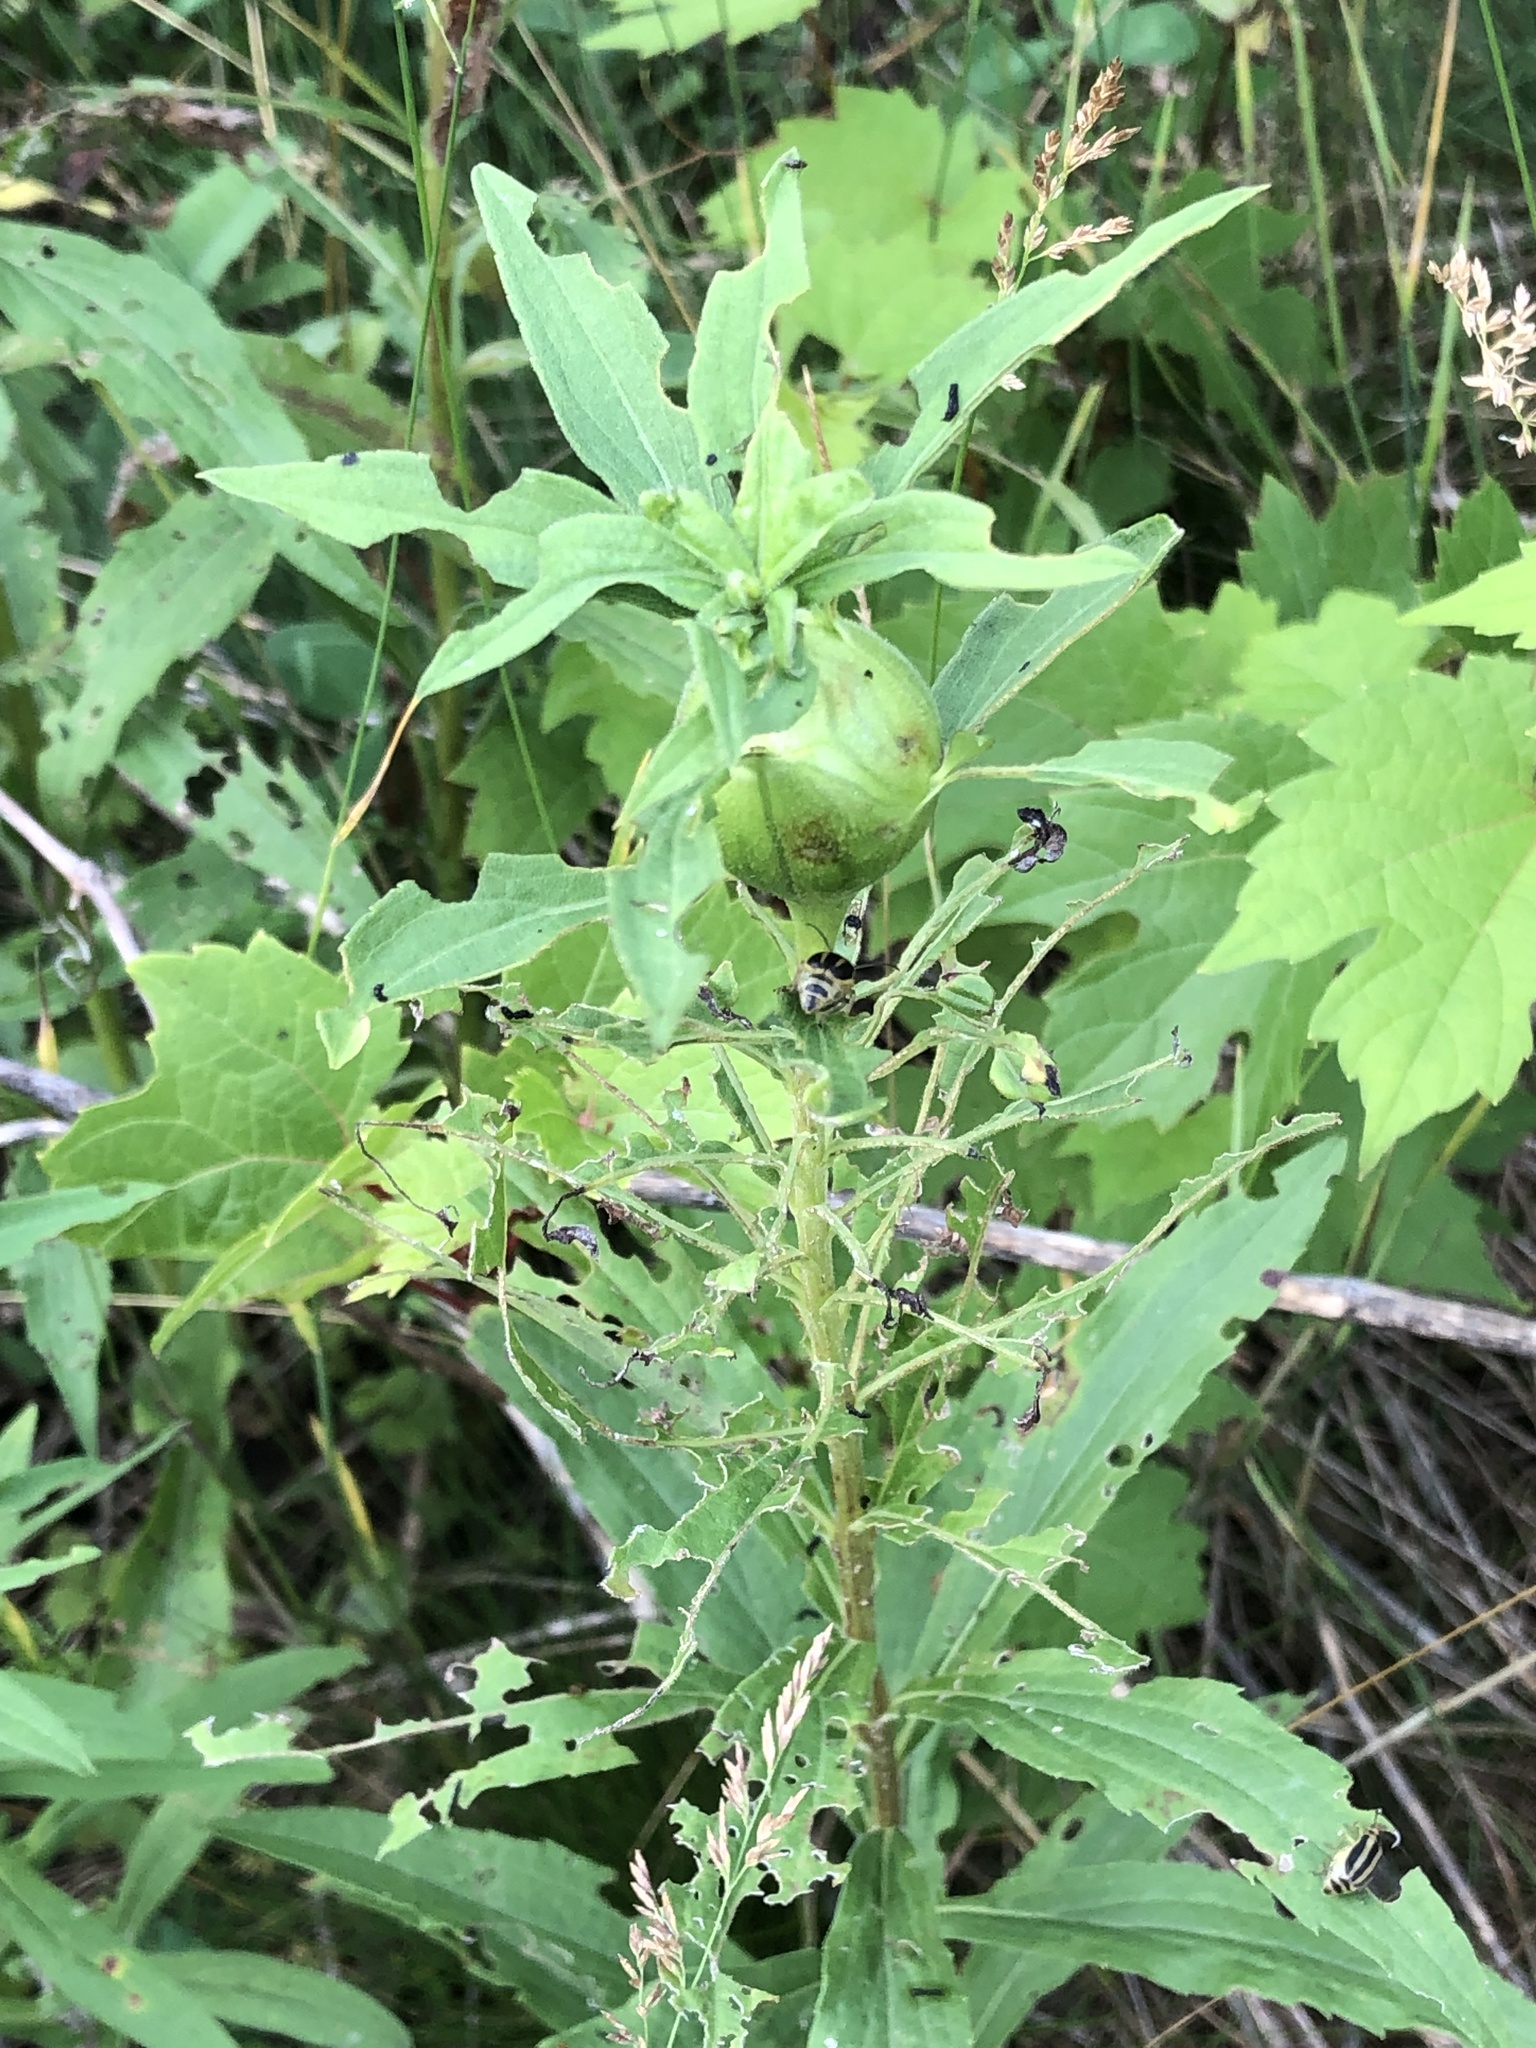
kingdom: Animalia
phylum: Arthropoda
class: Insecta
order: Diptera
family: Tephritidae
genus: Eurosta
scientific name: Eurosta solidaginis
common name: Goldenrod gall fly
